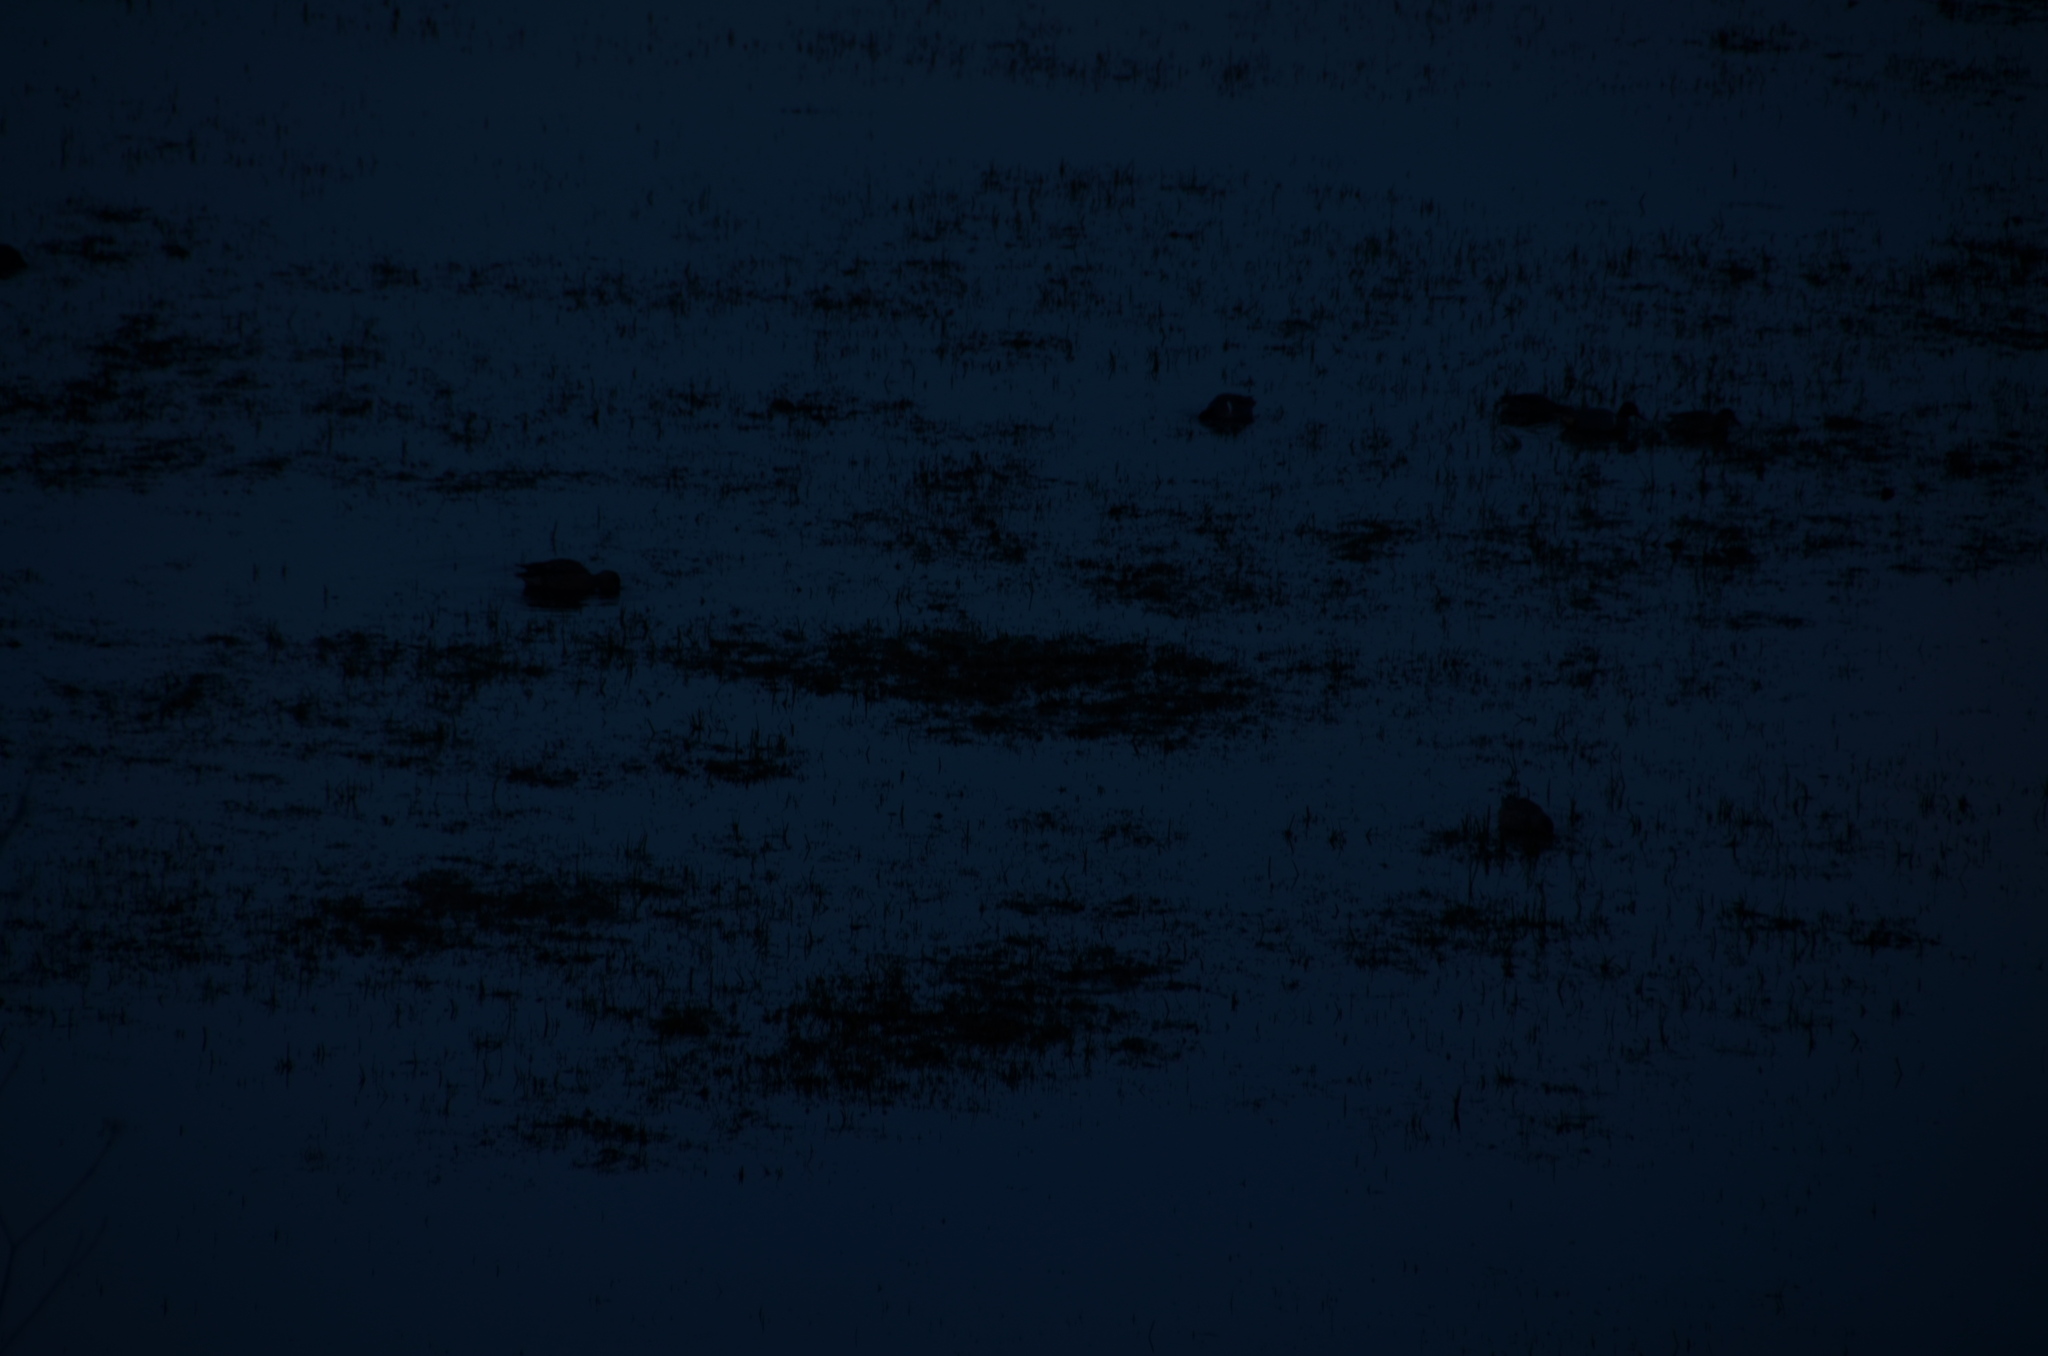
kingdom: Animalia
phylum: Chordata
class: Aves
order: Anseriformes
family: Anatidae
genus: Anas
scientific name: Anas crecca
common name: Eurasian teal
